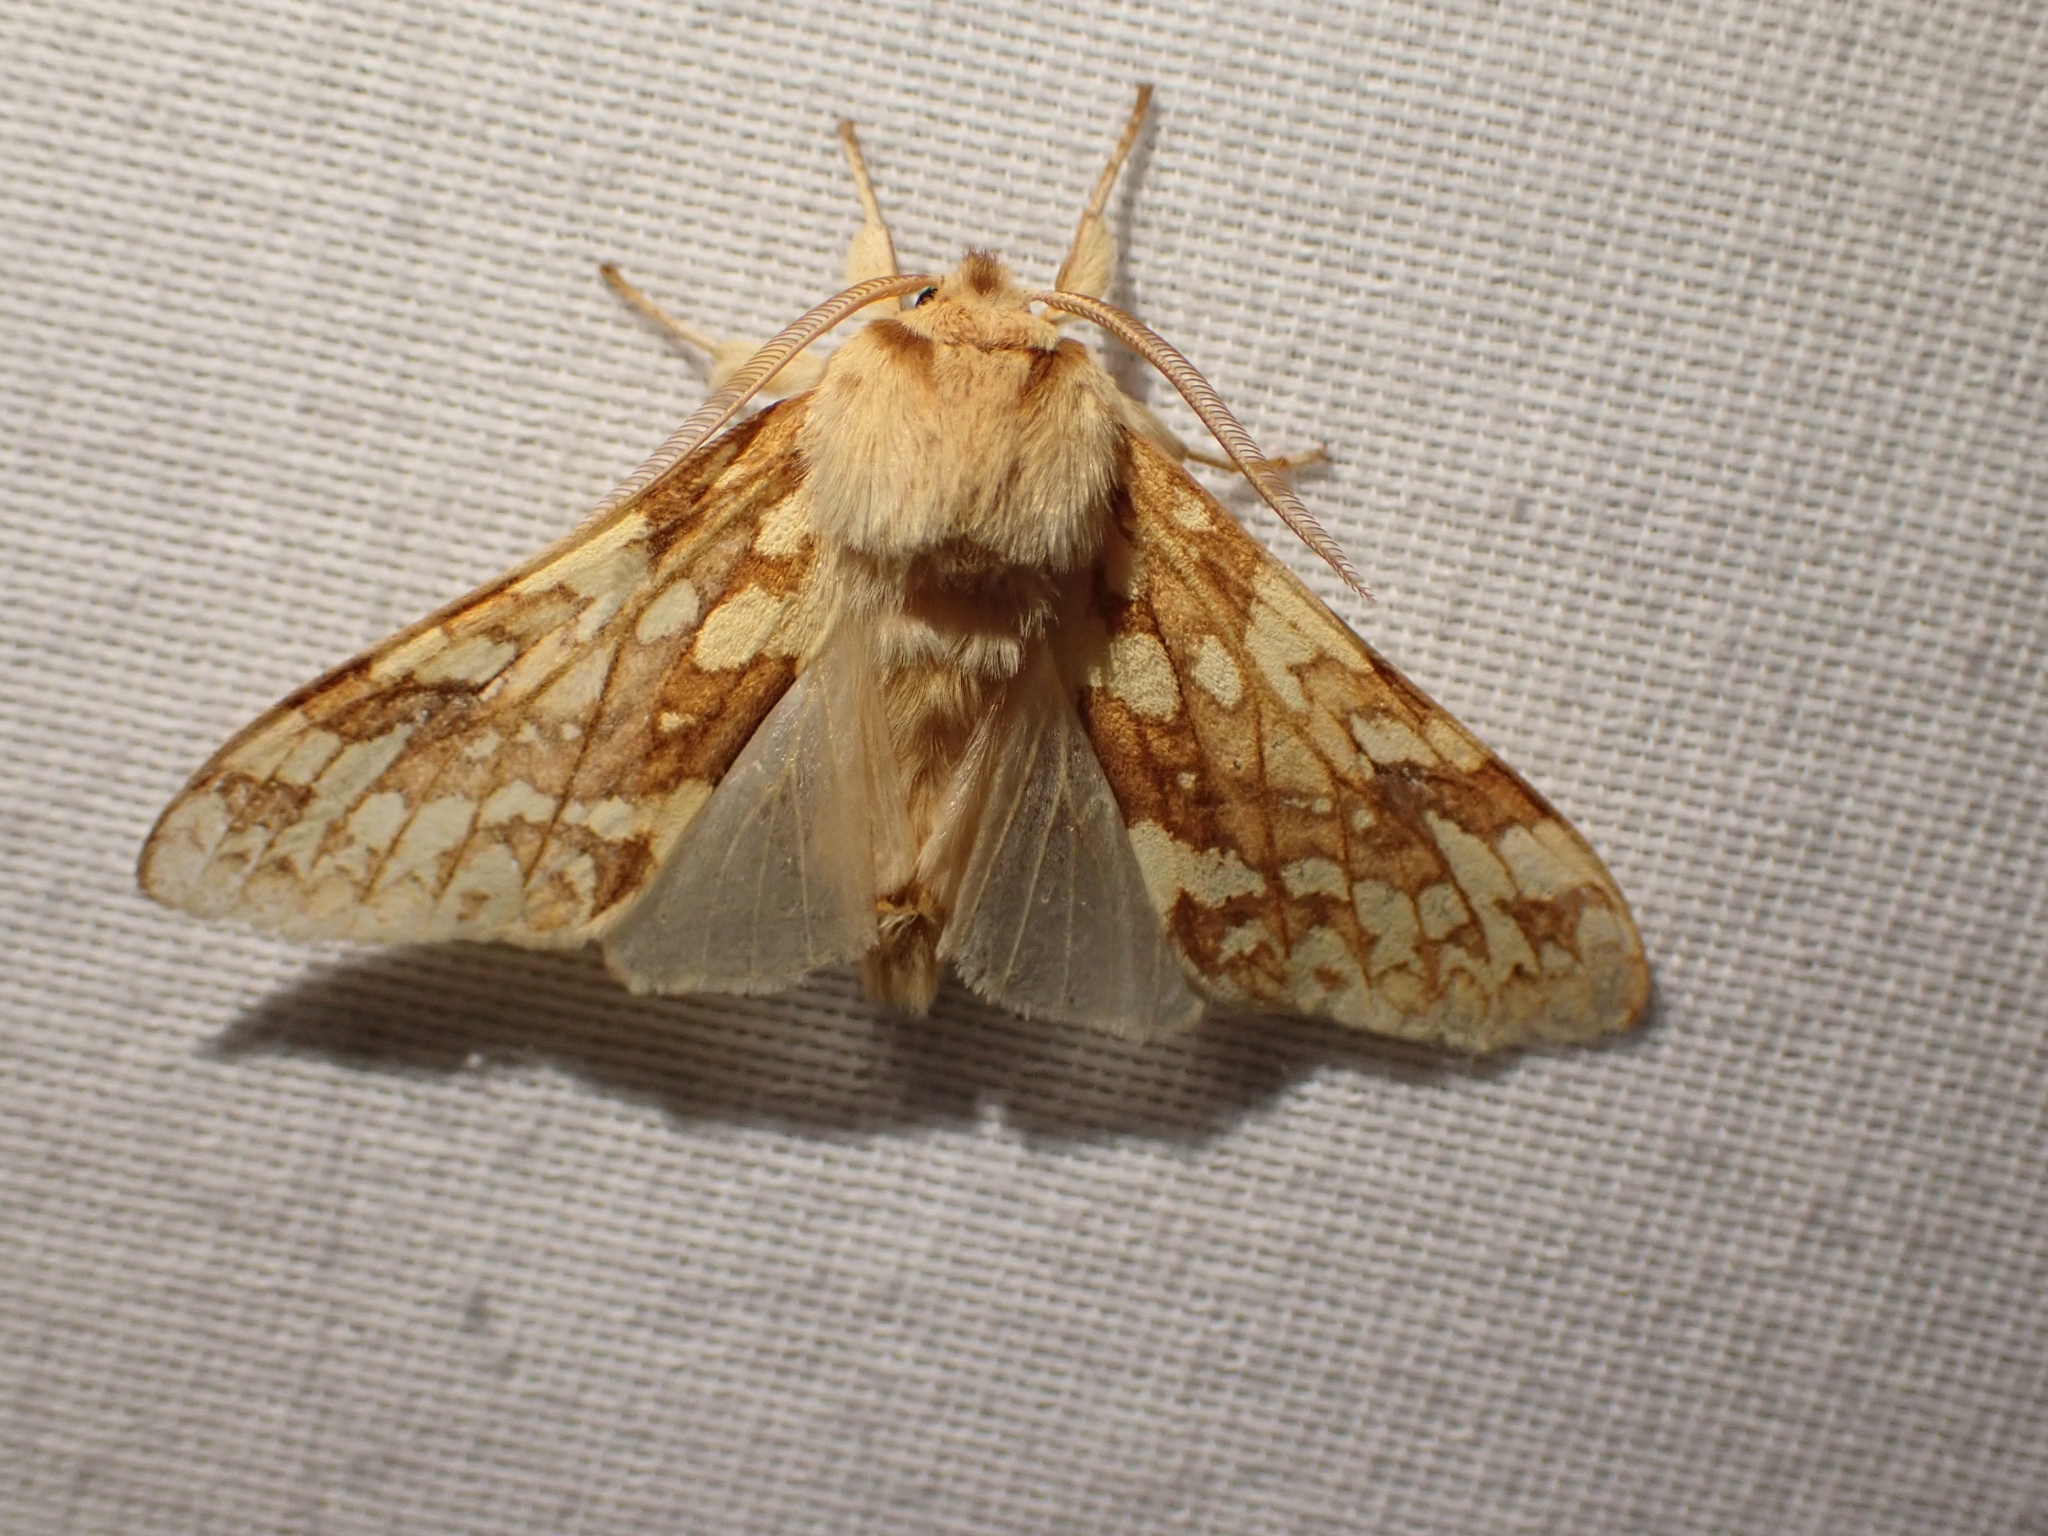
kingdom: Animalia
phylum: Arthropoda
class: Insecta
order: Lepidoptera
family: Erebidae
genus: Lophocampa
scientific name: Lophocampa maculata
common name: Spotted tussock moth
